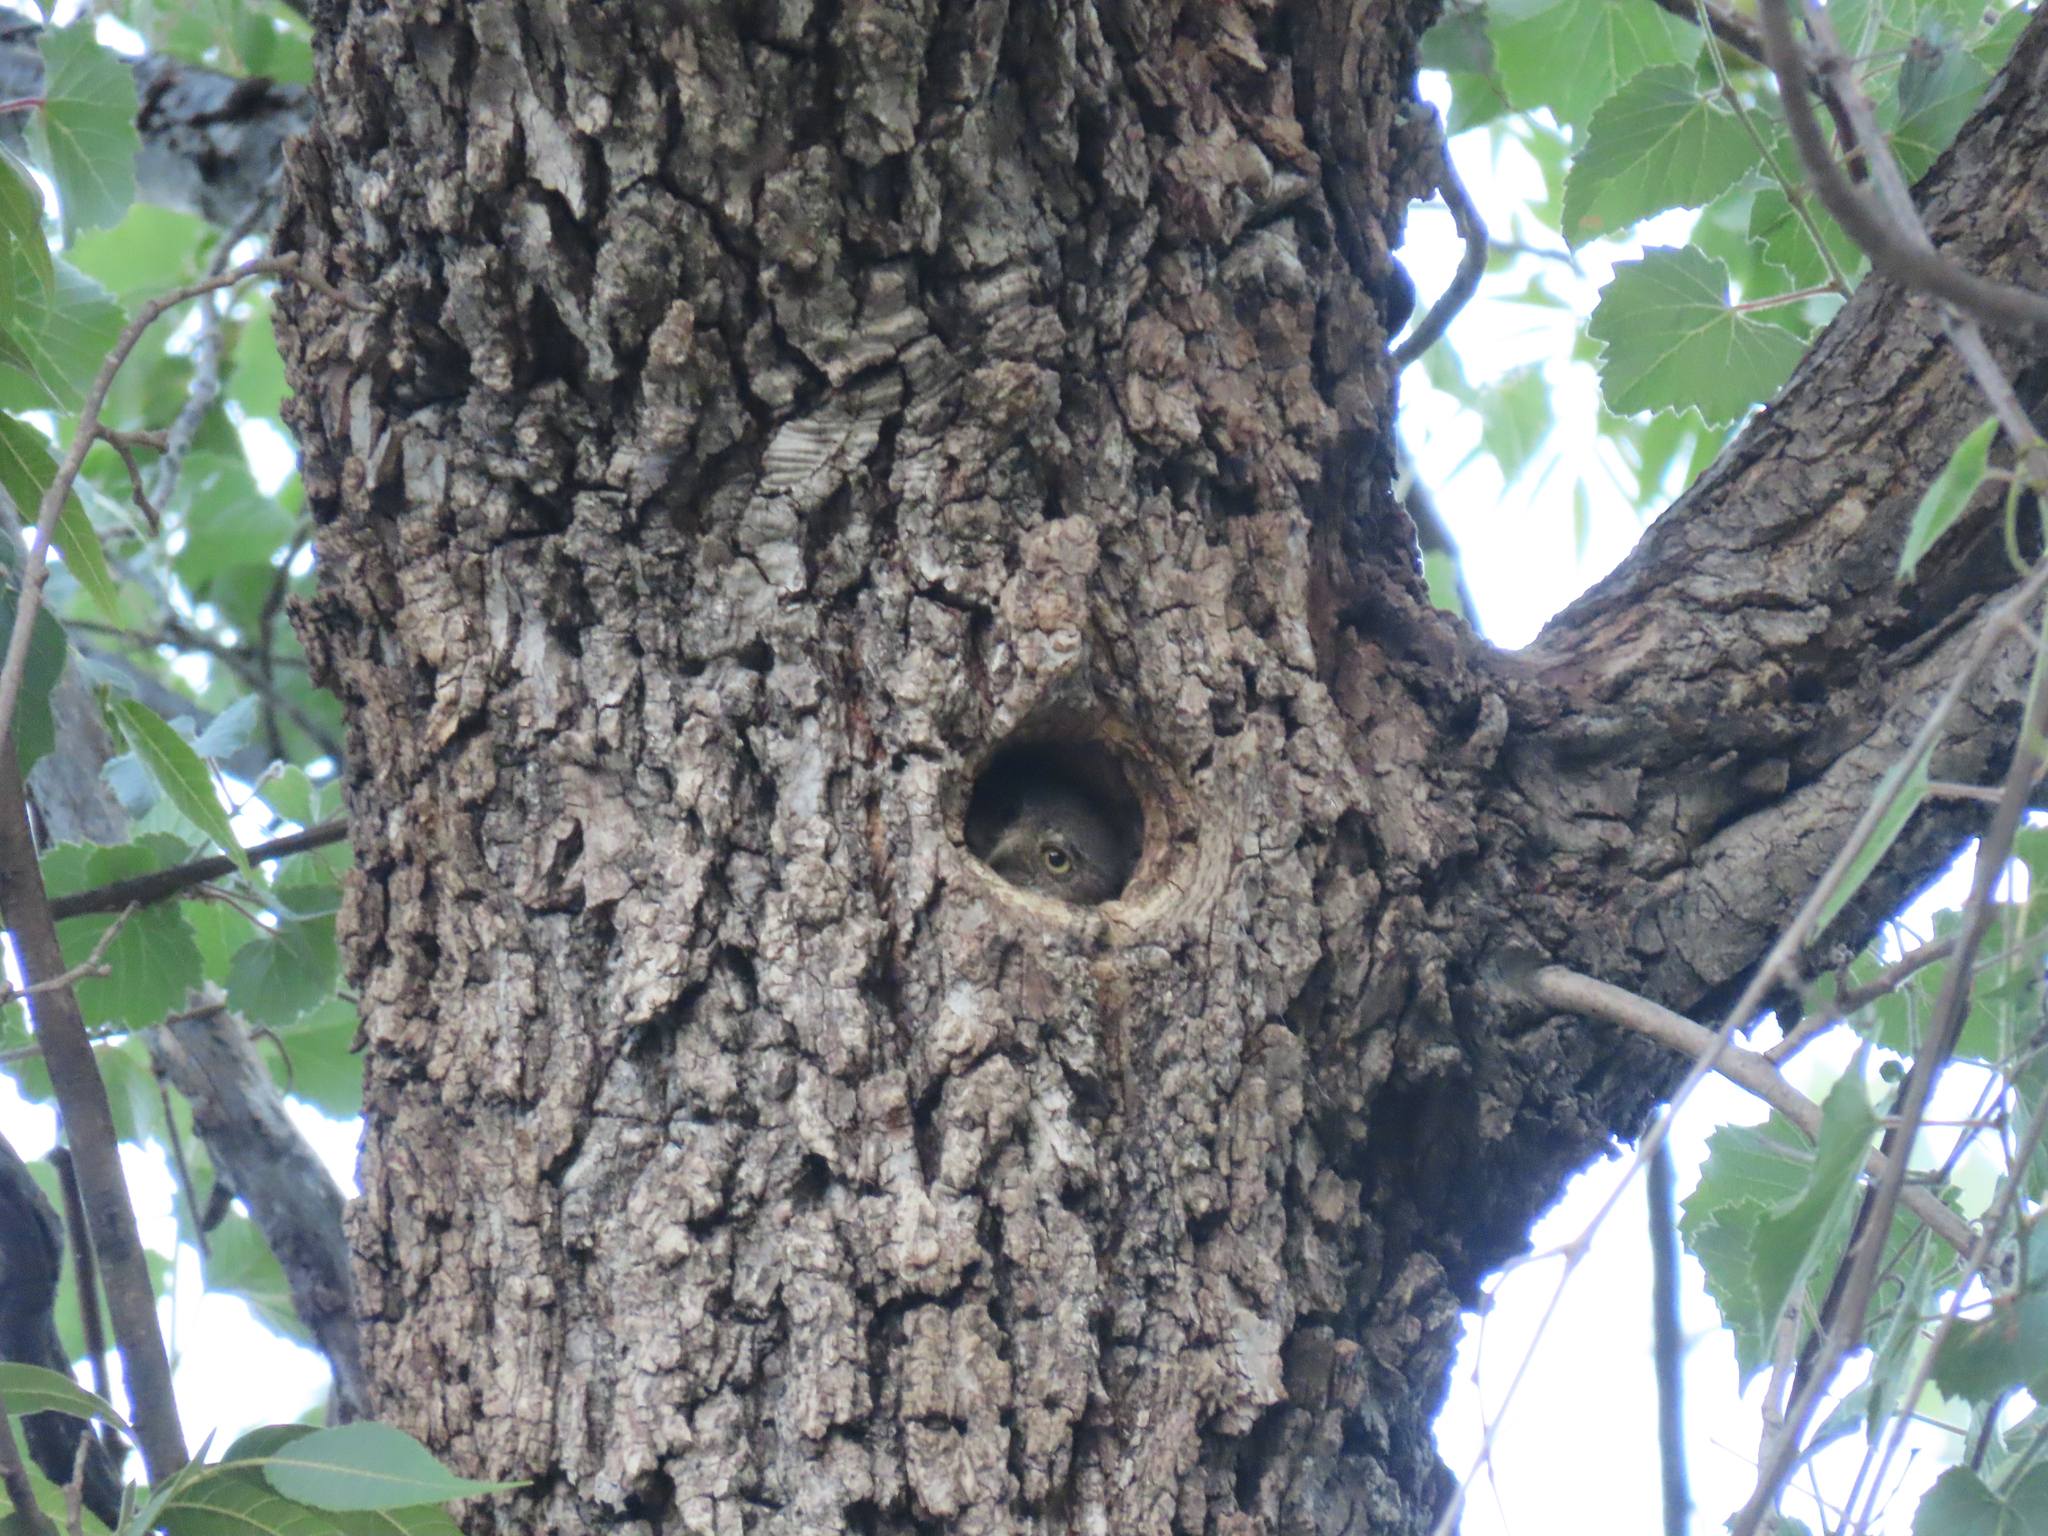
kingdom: Animalia
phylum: Chordata
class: Aves
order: Strigiformes
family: Strigidae
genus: Micrathene
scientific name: Micrathene whitneyi
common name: Elf owl
